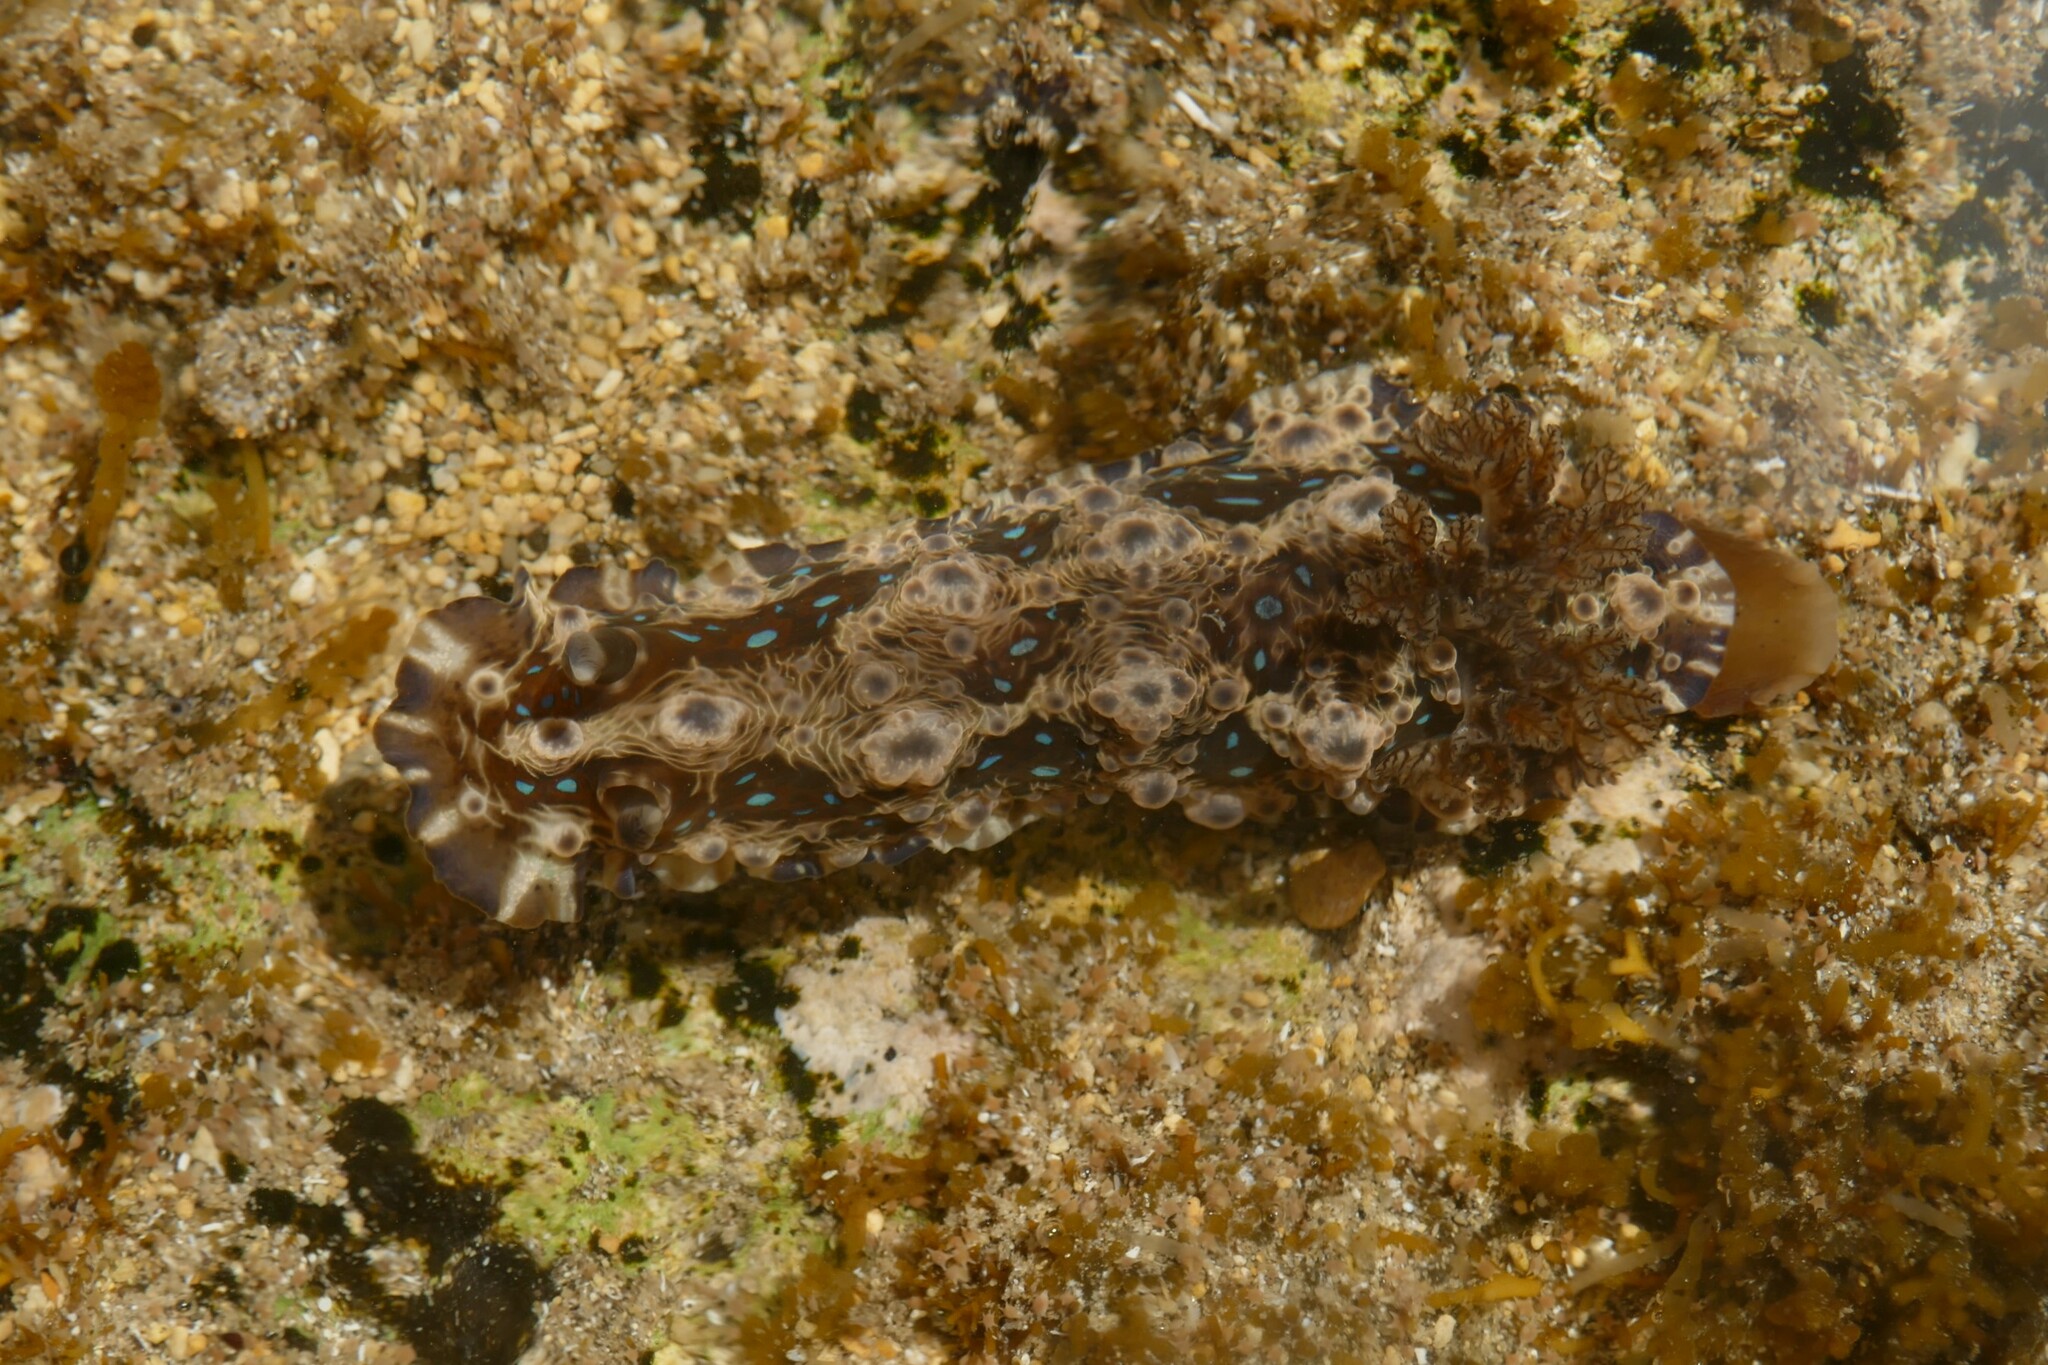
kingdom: Animalia
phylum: Mollusca
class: Gastropoda
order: Nudibranchia
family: Dendrodorididae
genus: Dendrodoris
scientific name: Dendrodoris krusensternii
